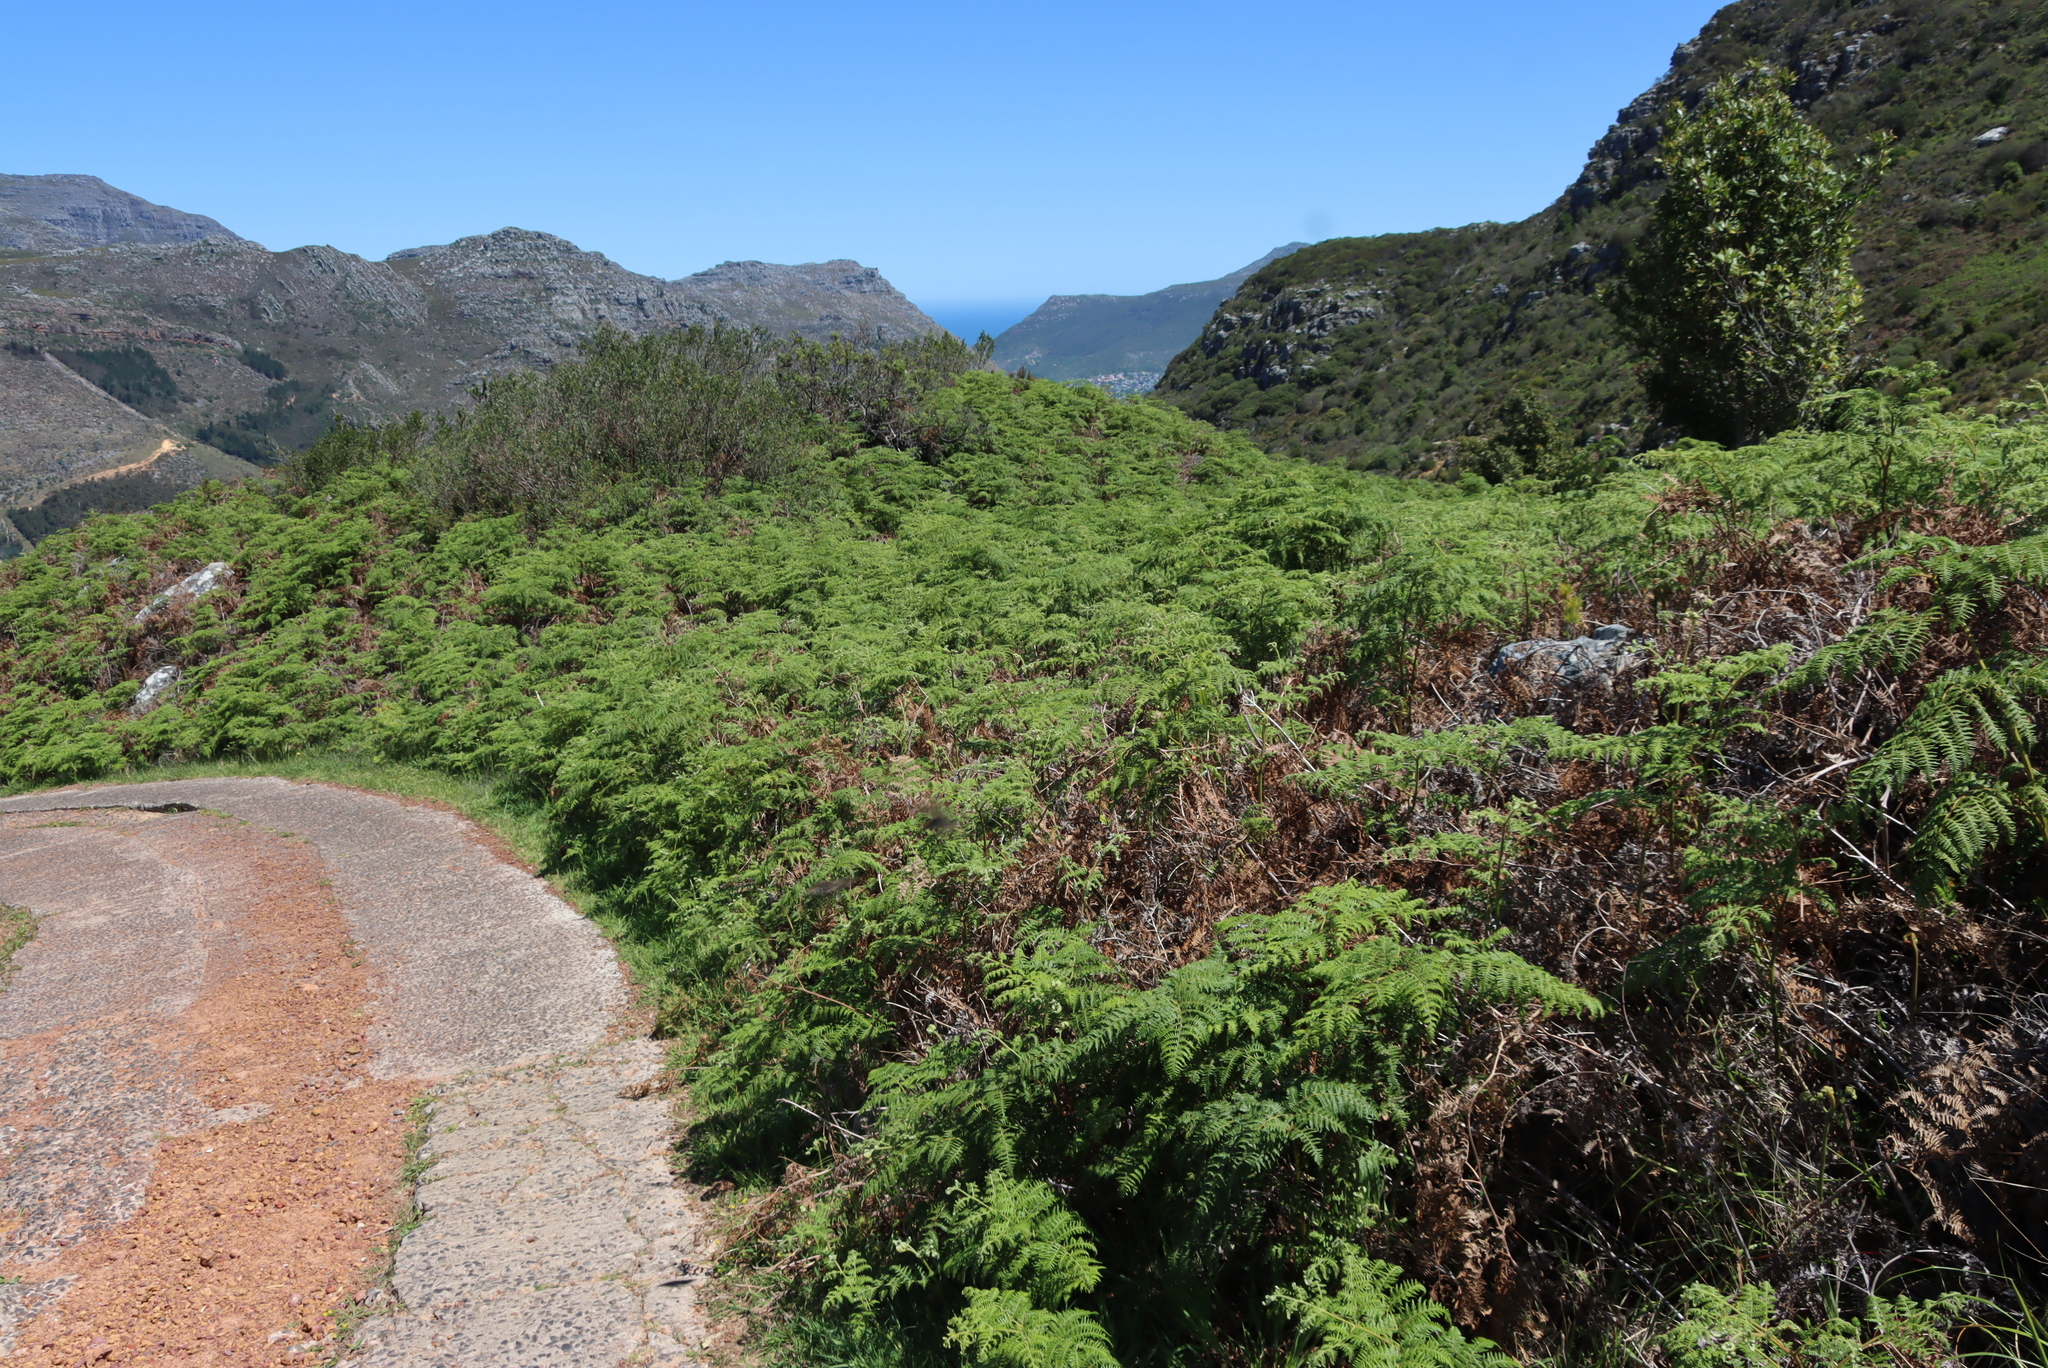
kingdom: Plantae
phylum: Tracheophyta
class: Polypodiopsida
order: Polypodiales
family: Dennstaedtiaceae
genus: Pteridium
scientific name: Pteridium aquilinum
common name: Bracken
